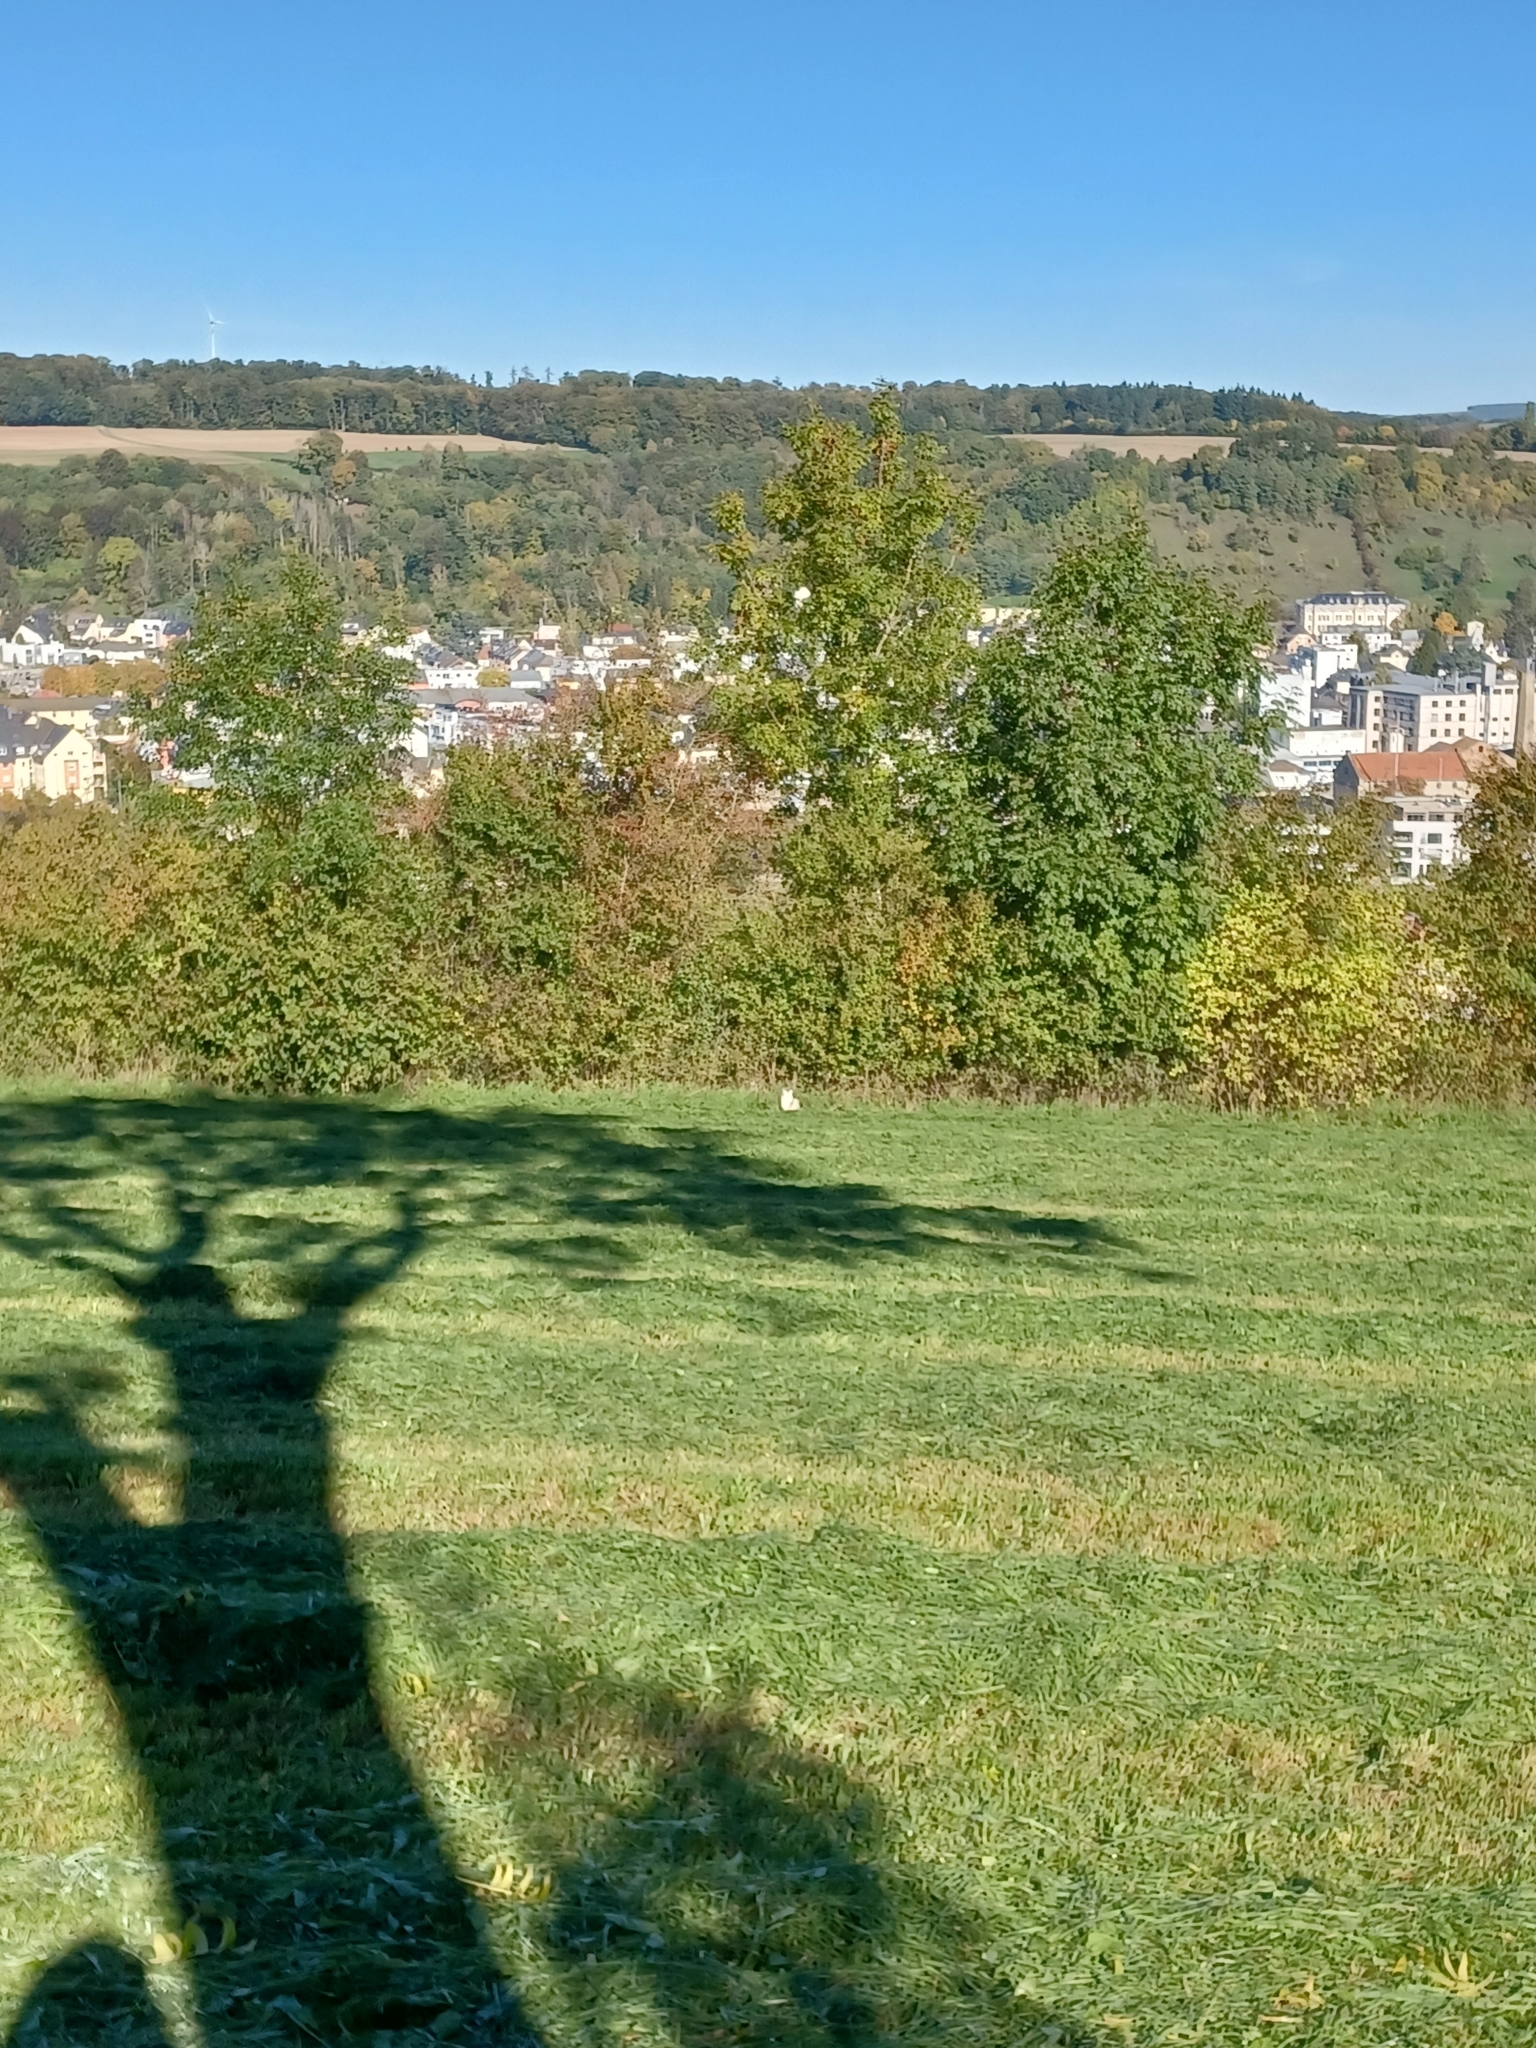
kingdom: Animalia
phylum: Chordata
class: Mammalia
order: Carnivora
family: Felidae
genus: Felis
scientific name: Felis catus
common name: Domestic cat
